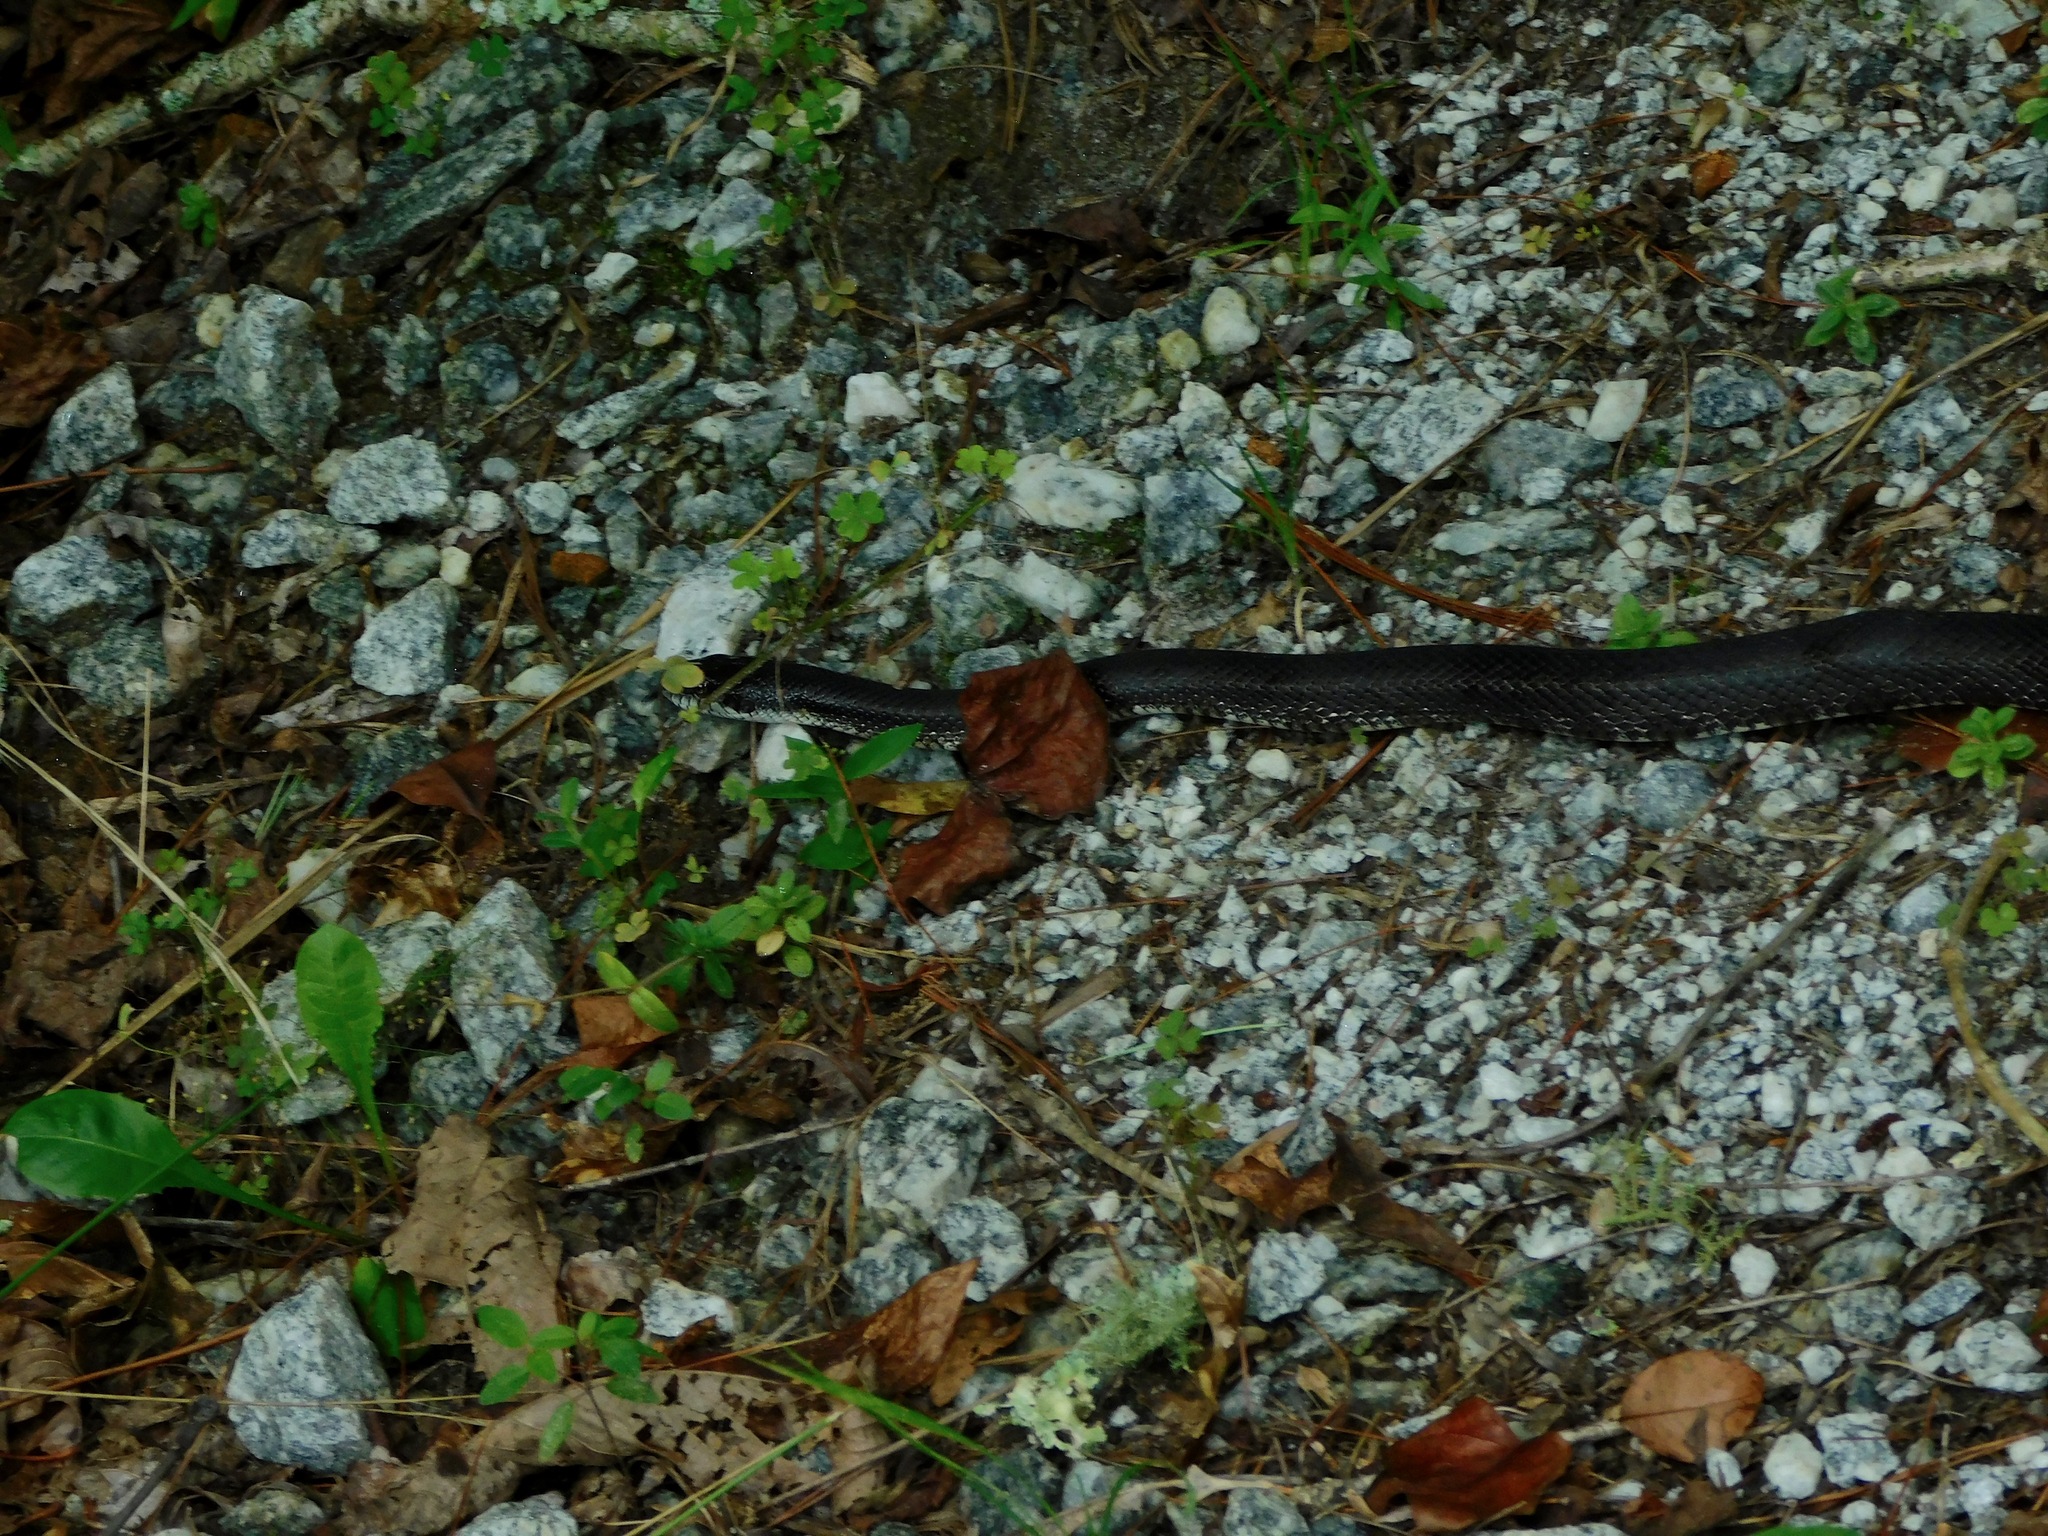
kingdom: Animalia
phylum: Chordata
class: Squamata
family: Colubridae
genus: Pantherophis
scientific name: Pantherophis alleghaniensis
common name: Eastern rat snake
